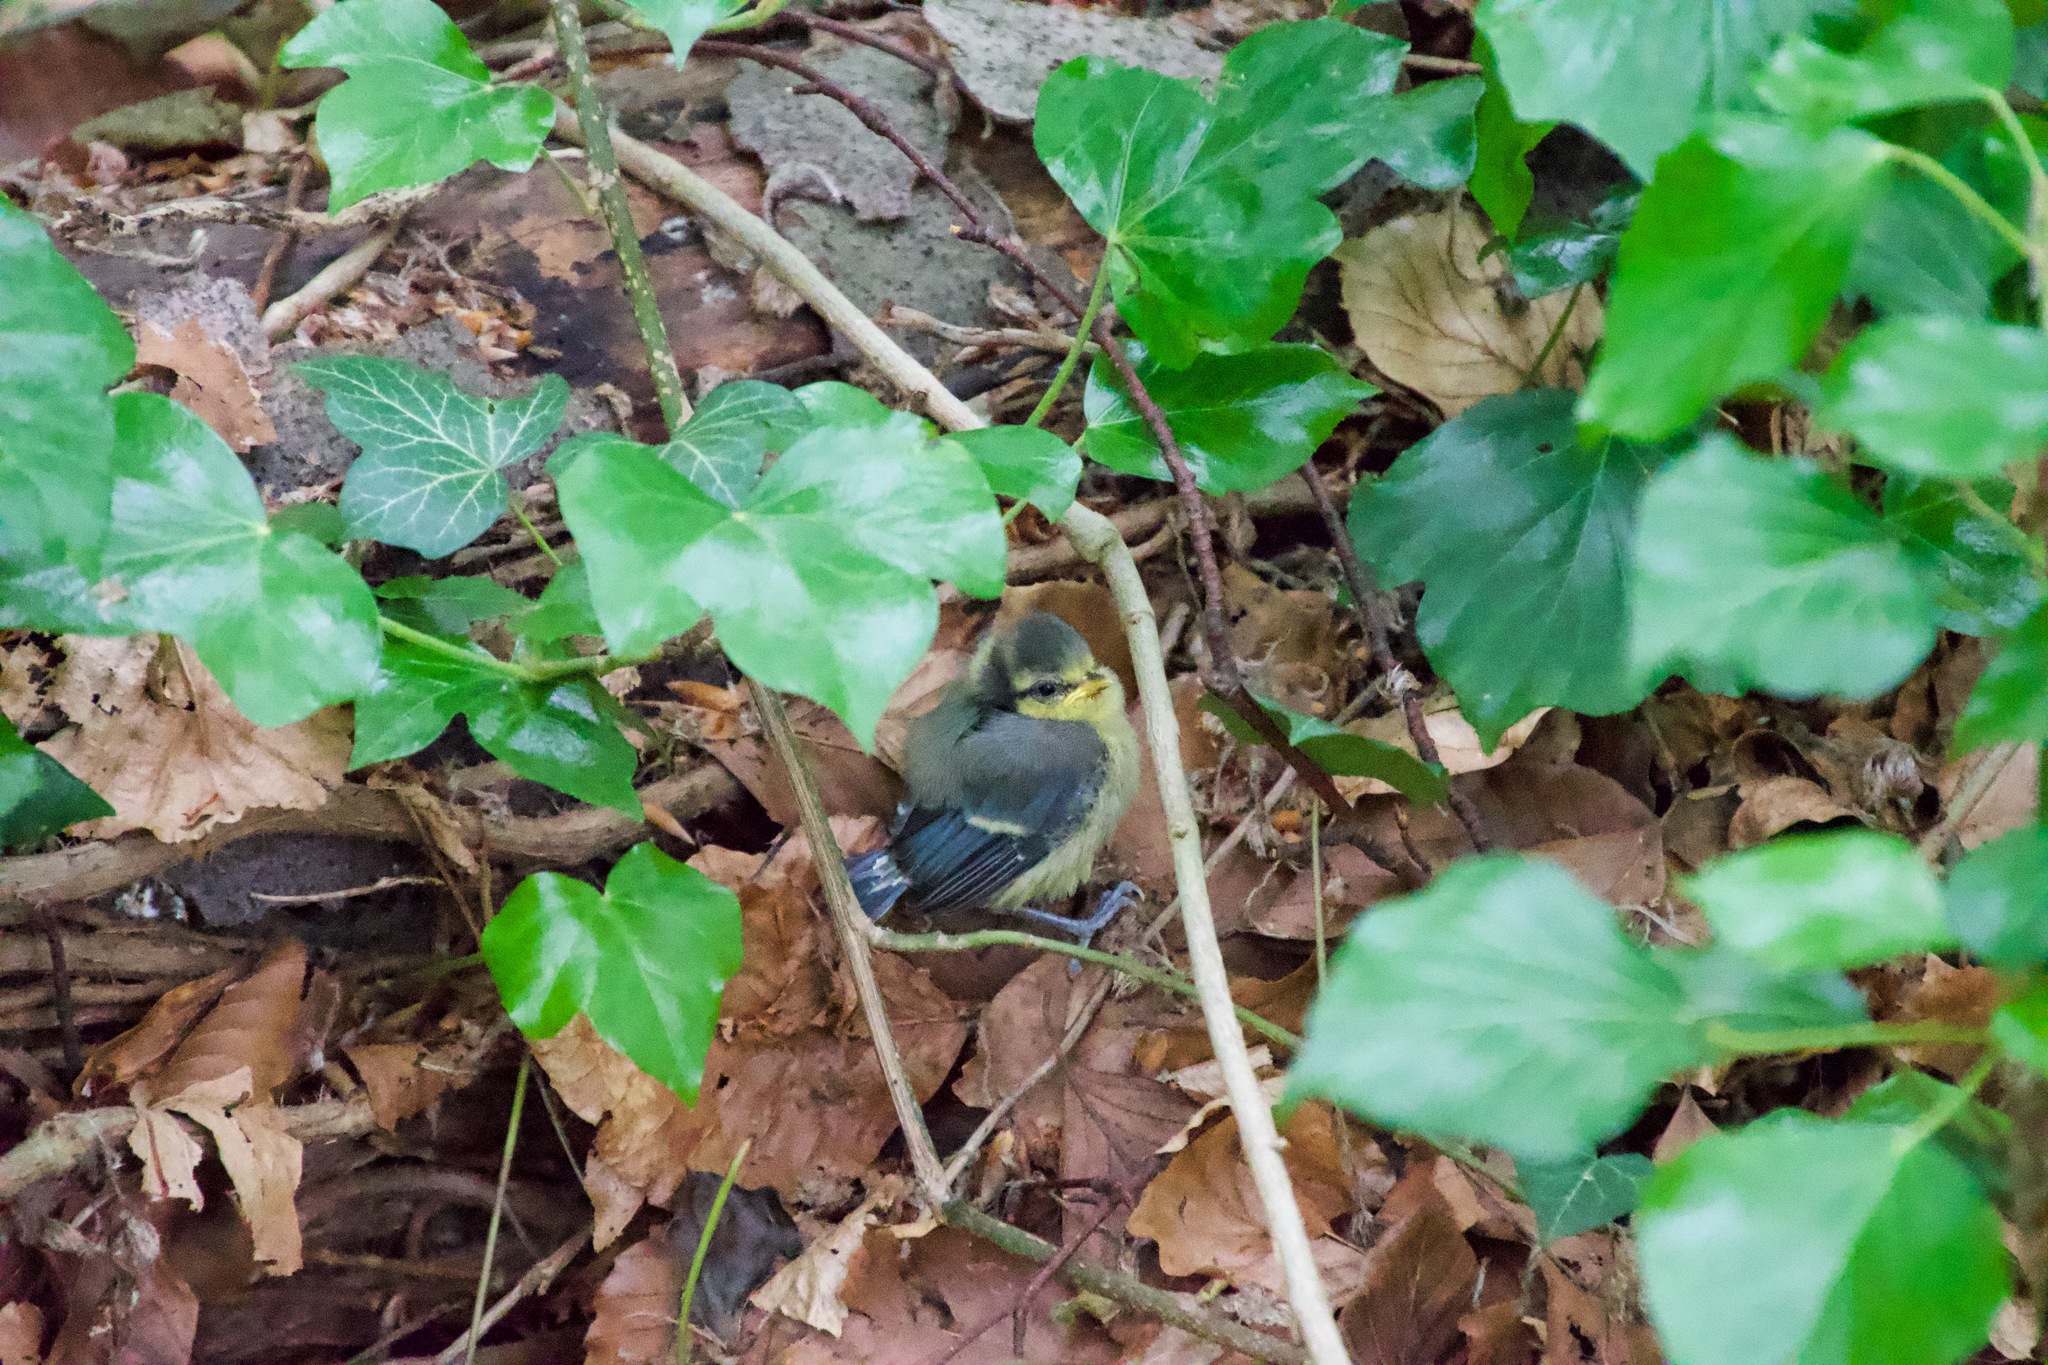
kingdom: Animalia
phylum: Chordata
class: Aves
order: Passeriformes
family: Paridae
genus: Cyanistes
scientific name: Cyanistes caeruleus
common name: Eurasian blue tit
